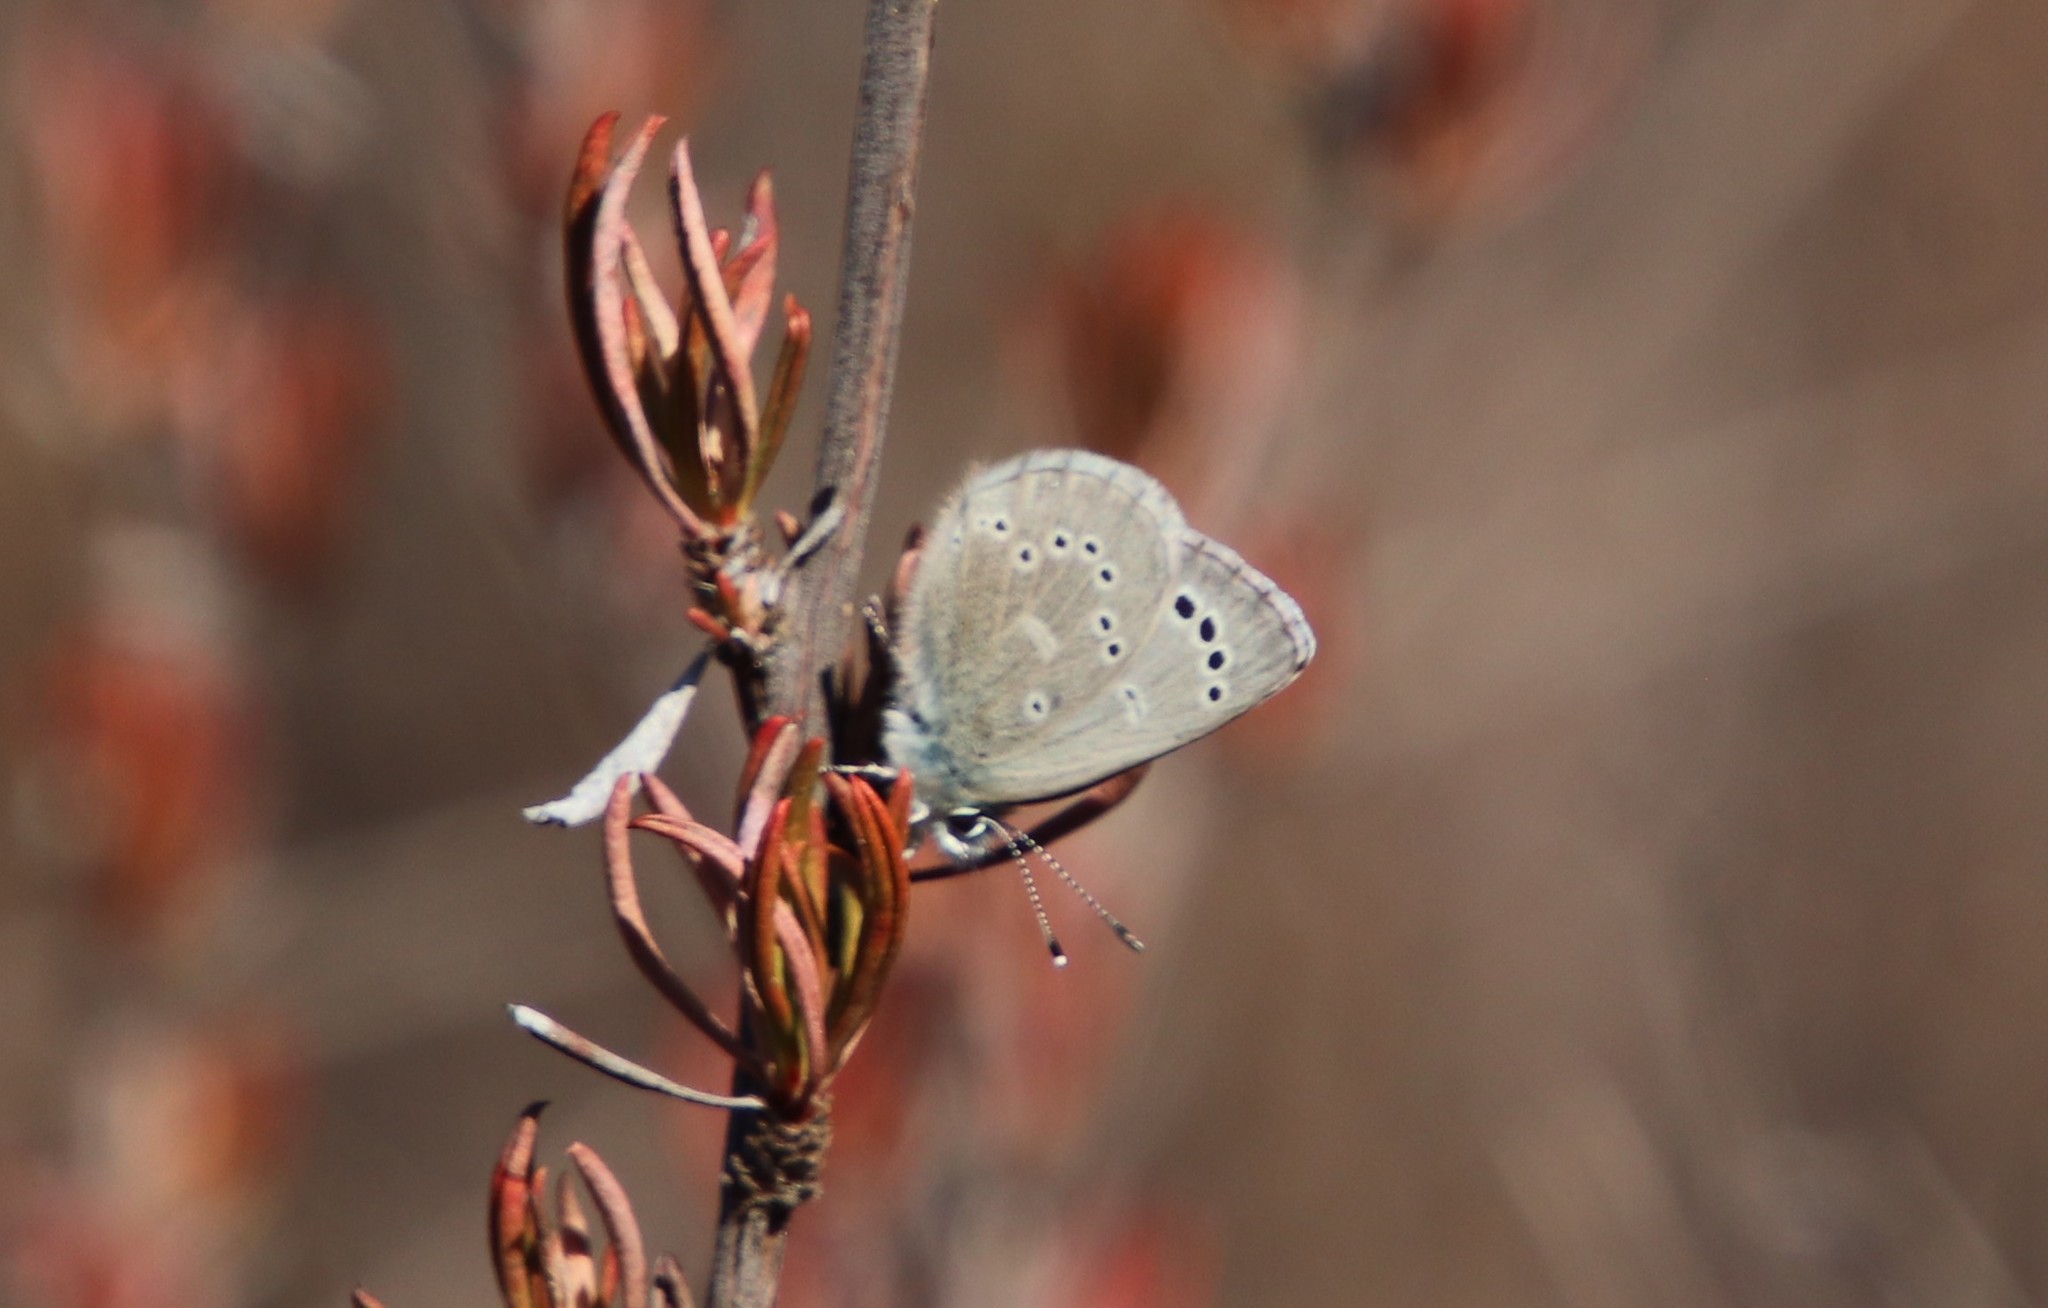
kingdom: Animalia
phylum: Arthropoda
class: Insecta
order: Lepidoptera
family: Lycaenidae
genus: Glaucopsyche
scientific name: Glaucopsyche lygdamus
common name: Silvery blue
